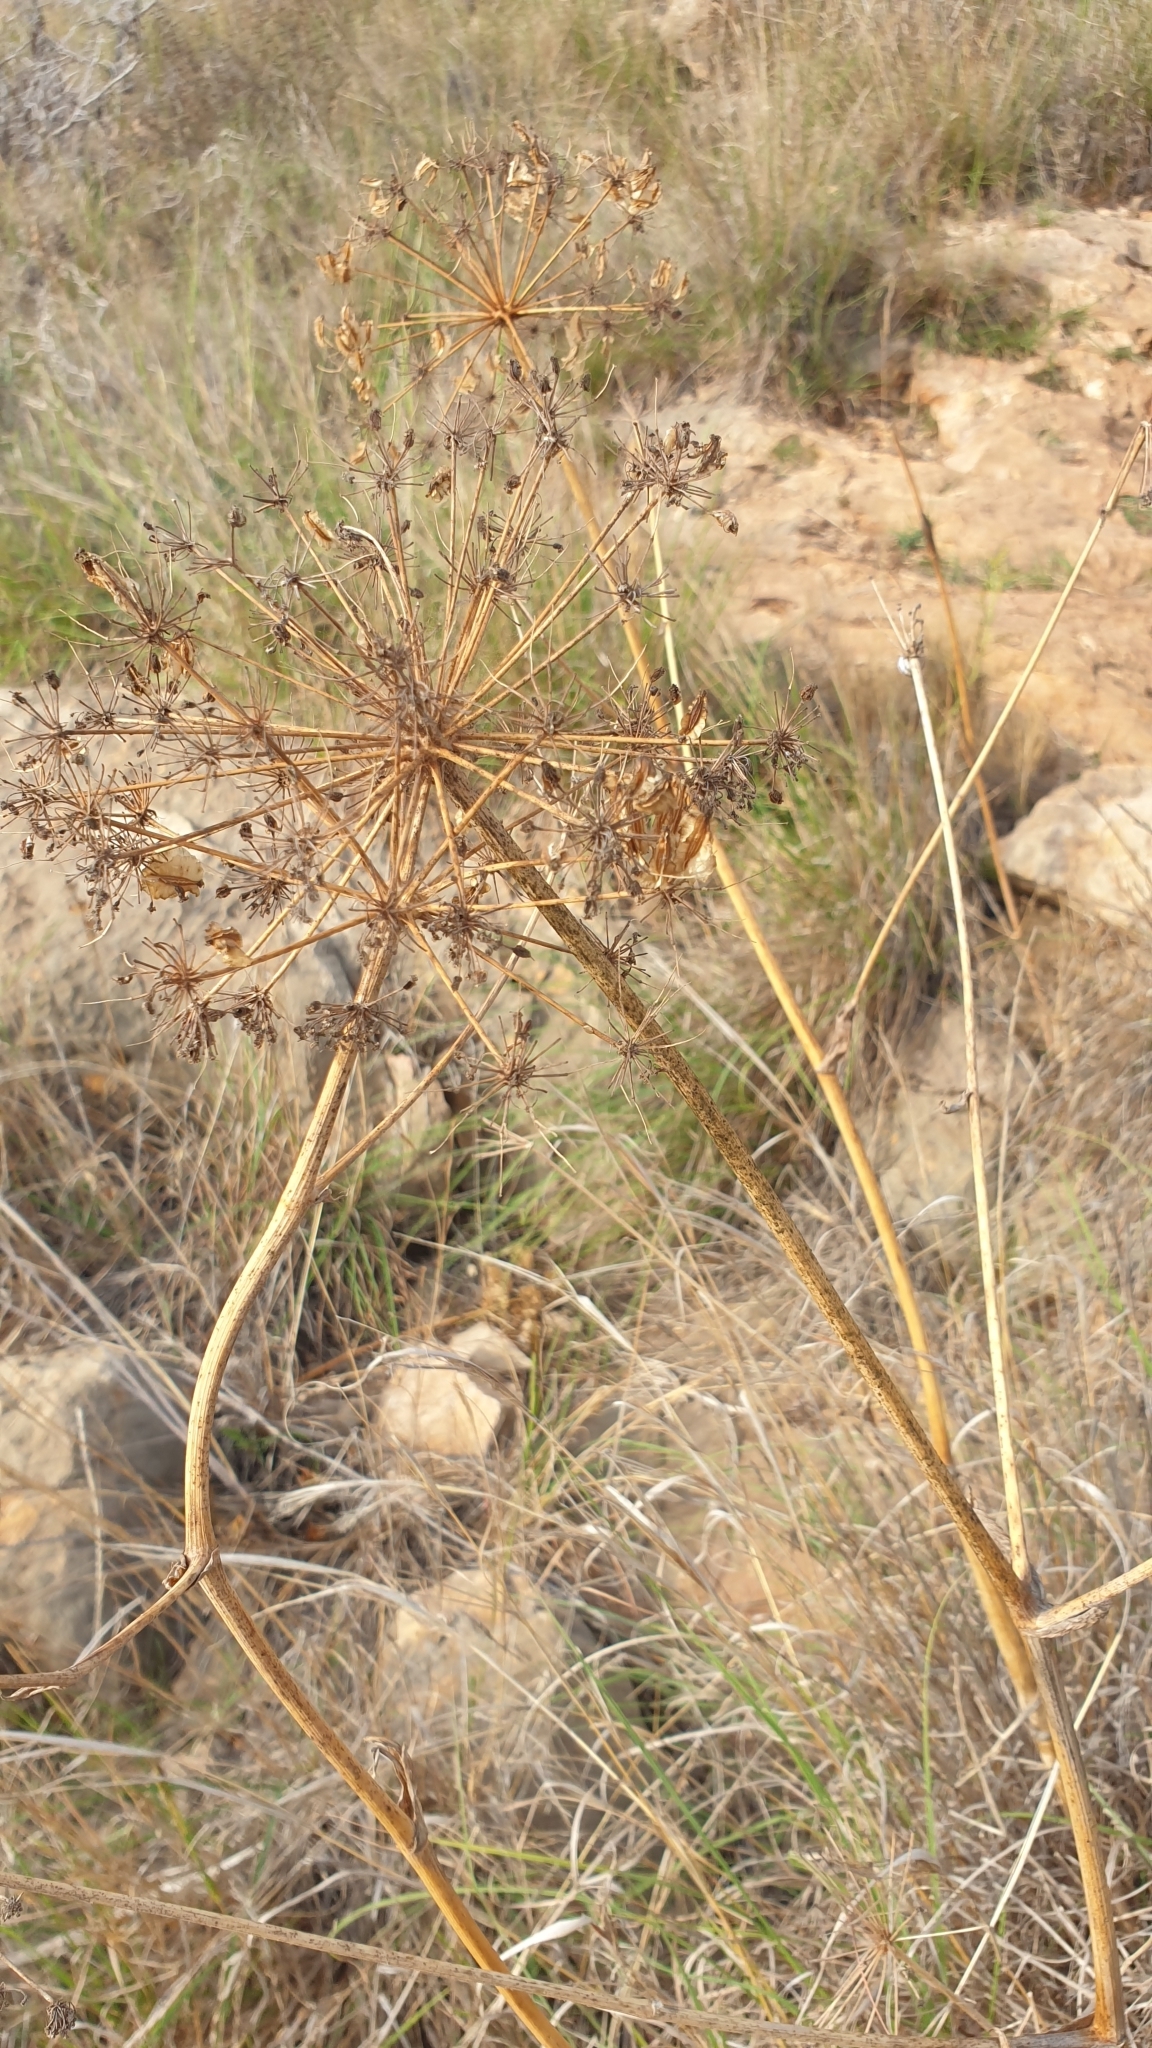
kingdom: Plantae
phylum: Tracheophyta
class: Magnoliopsida
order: Apiales
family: Apiaceae
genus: Thapsia
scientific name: Thapsia villosa
